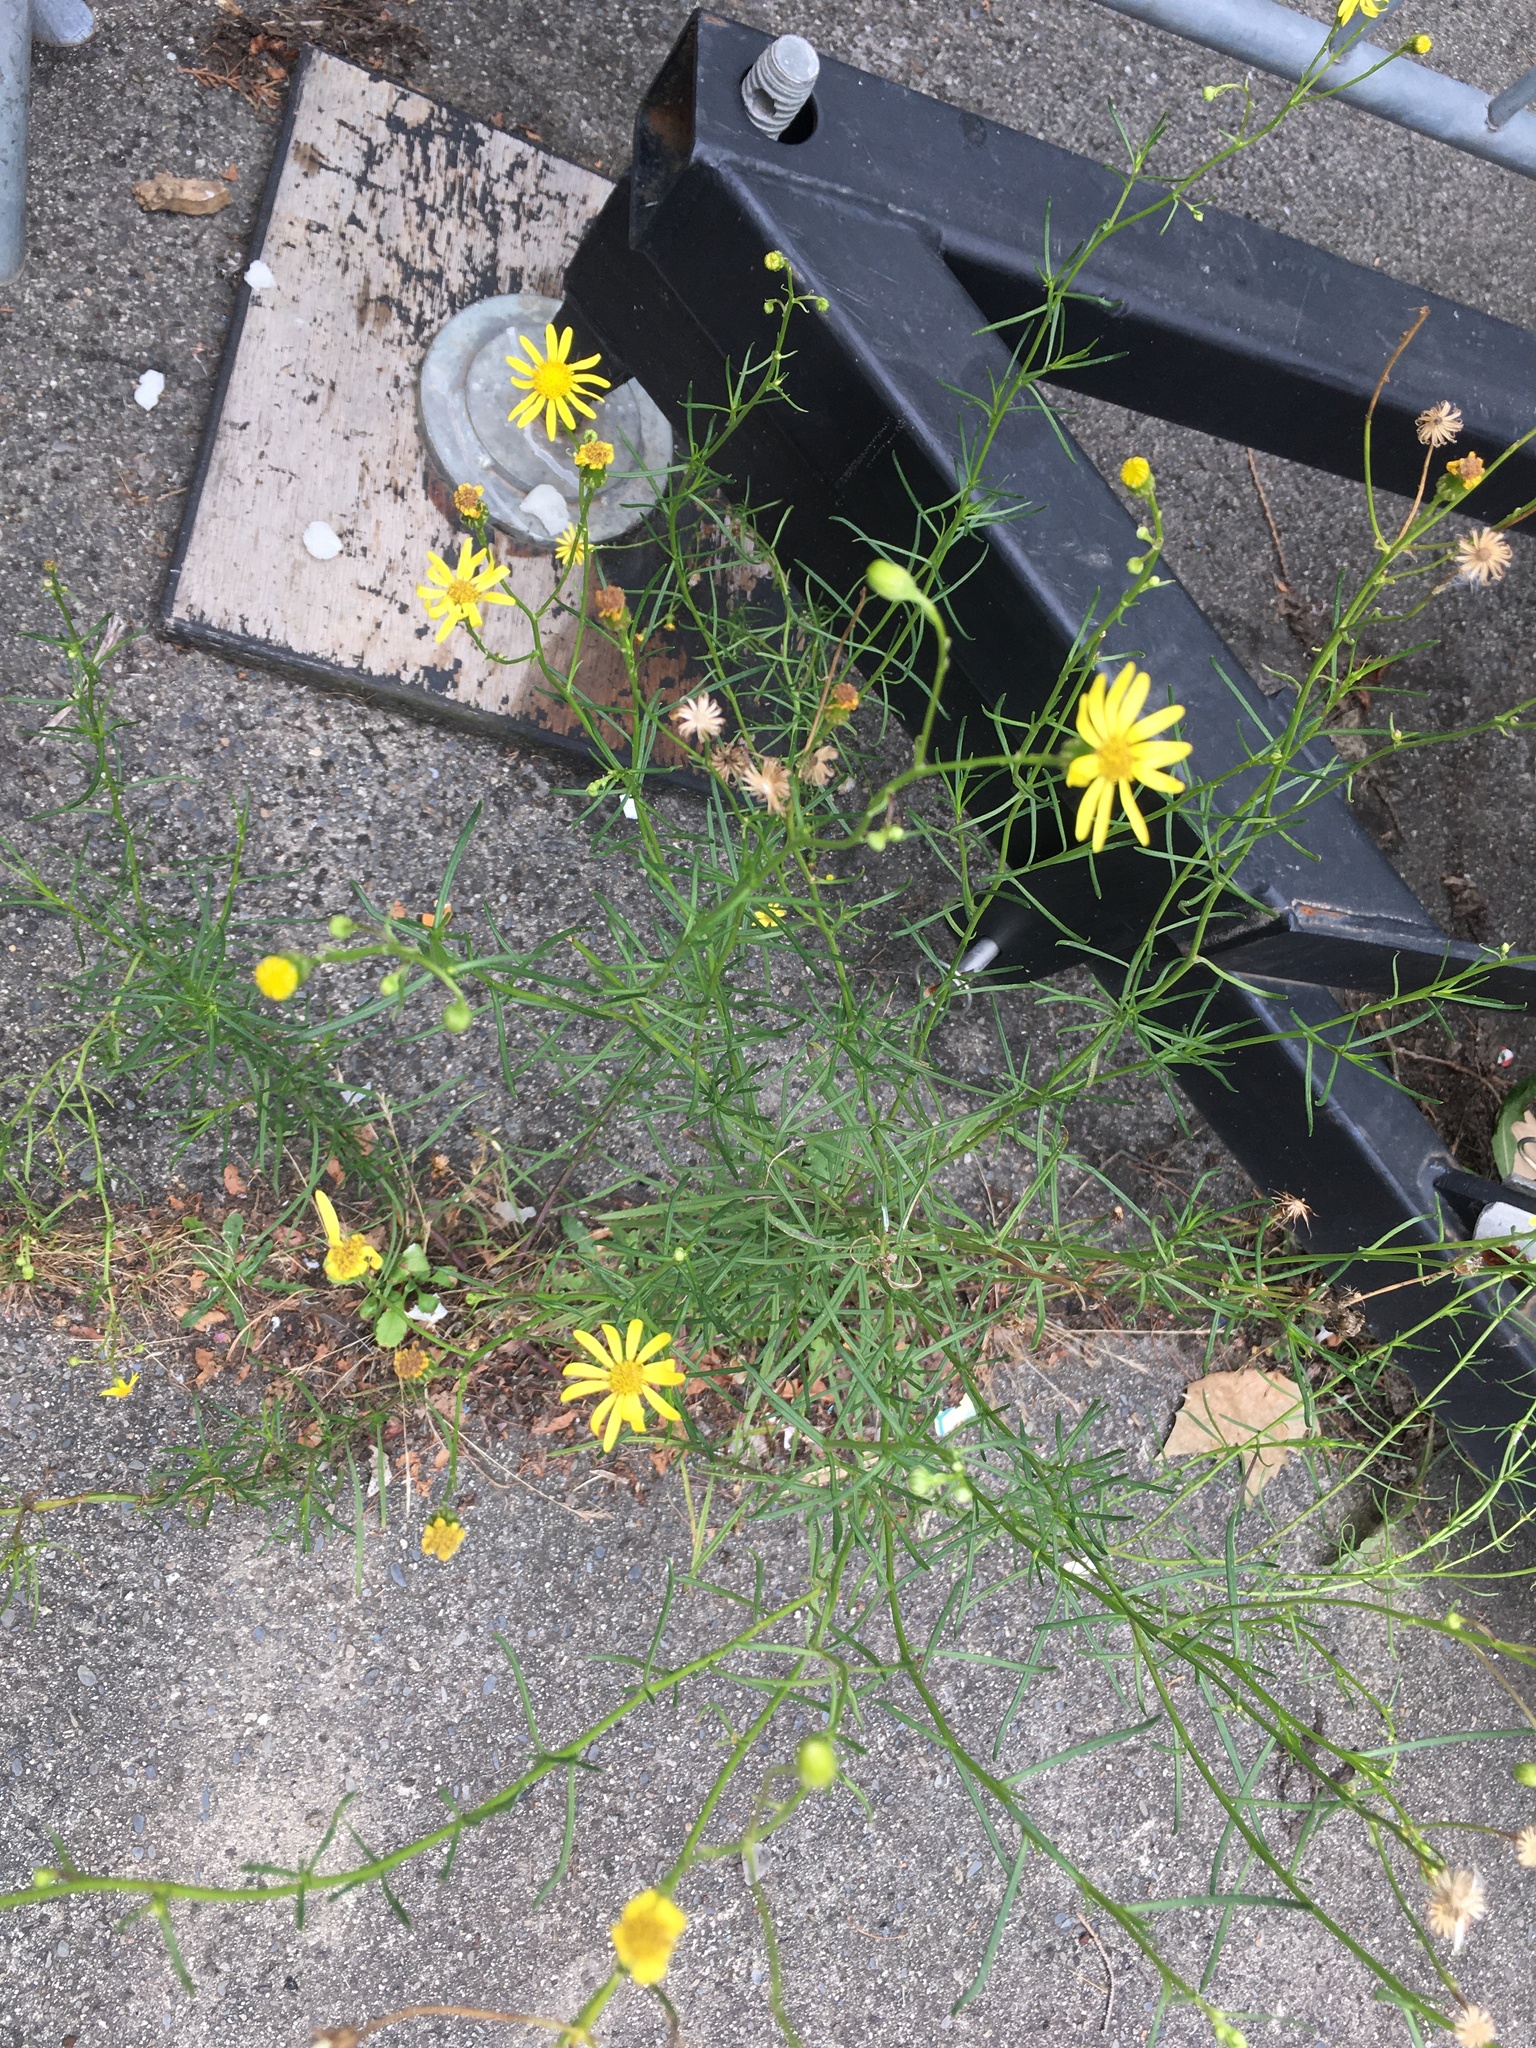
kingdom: Plantae
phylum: Tracheophyta
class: Magnoliopsida
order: Asterales
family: Asteraceae
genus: Senecio
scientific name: Senecio inaequidens
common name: Narrow-leaved ragwort
